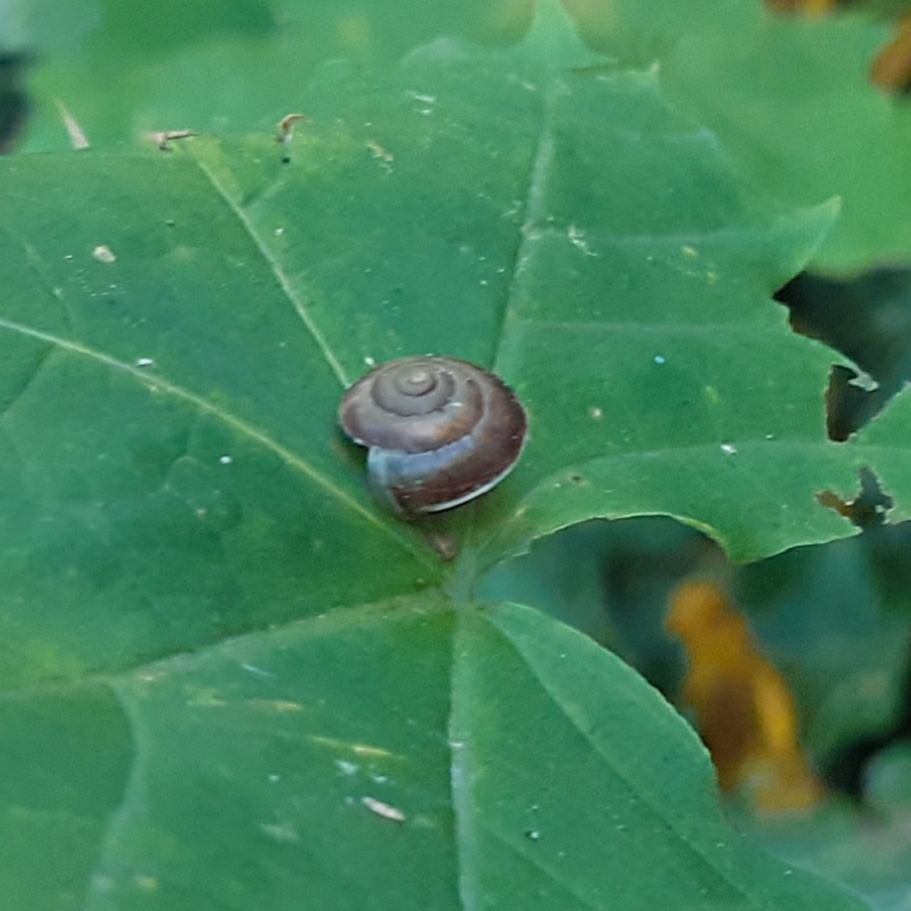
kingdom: Animalia
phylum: Mollusca
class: Gastropoda
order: Stylommatophora
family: Hygromiidae
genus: Hygromia
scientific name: Hygromia cinctella
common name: Girdled snail
